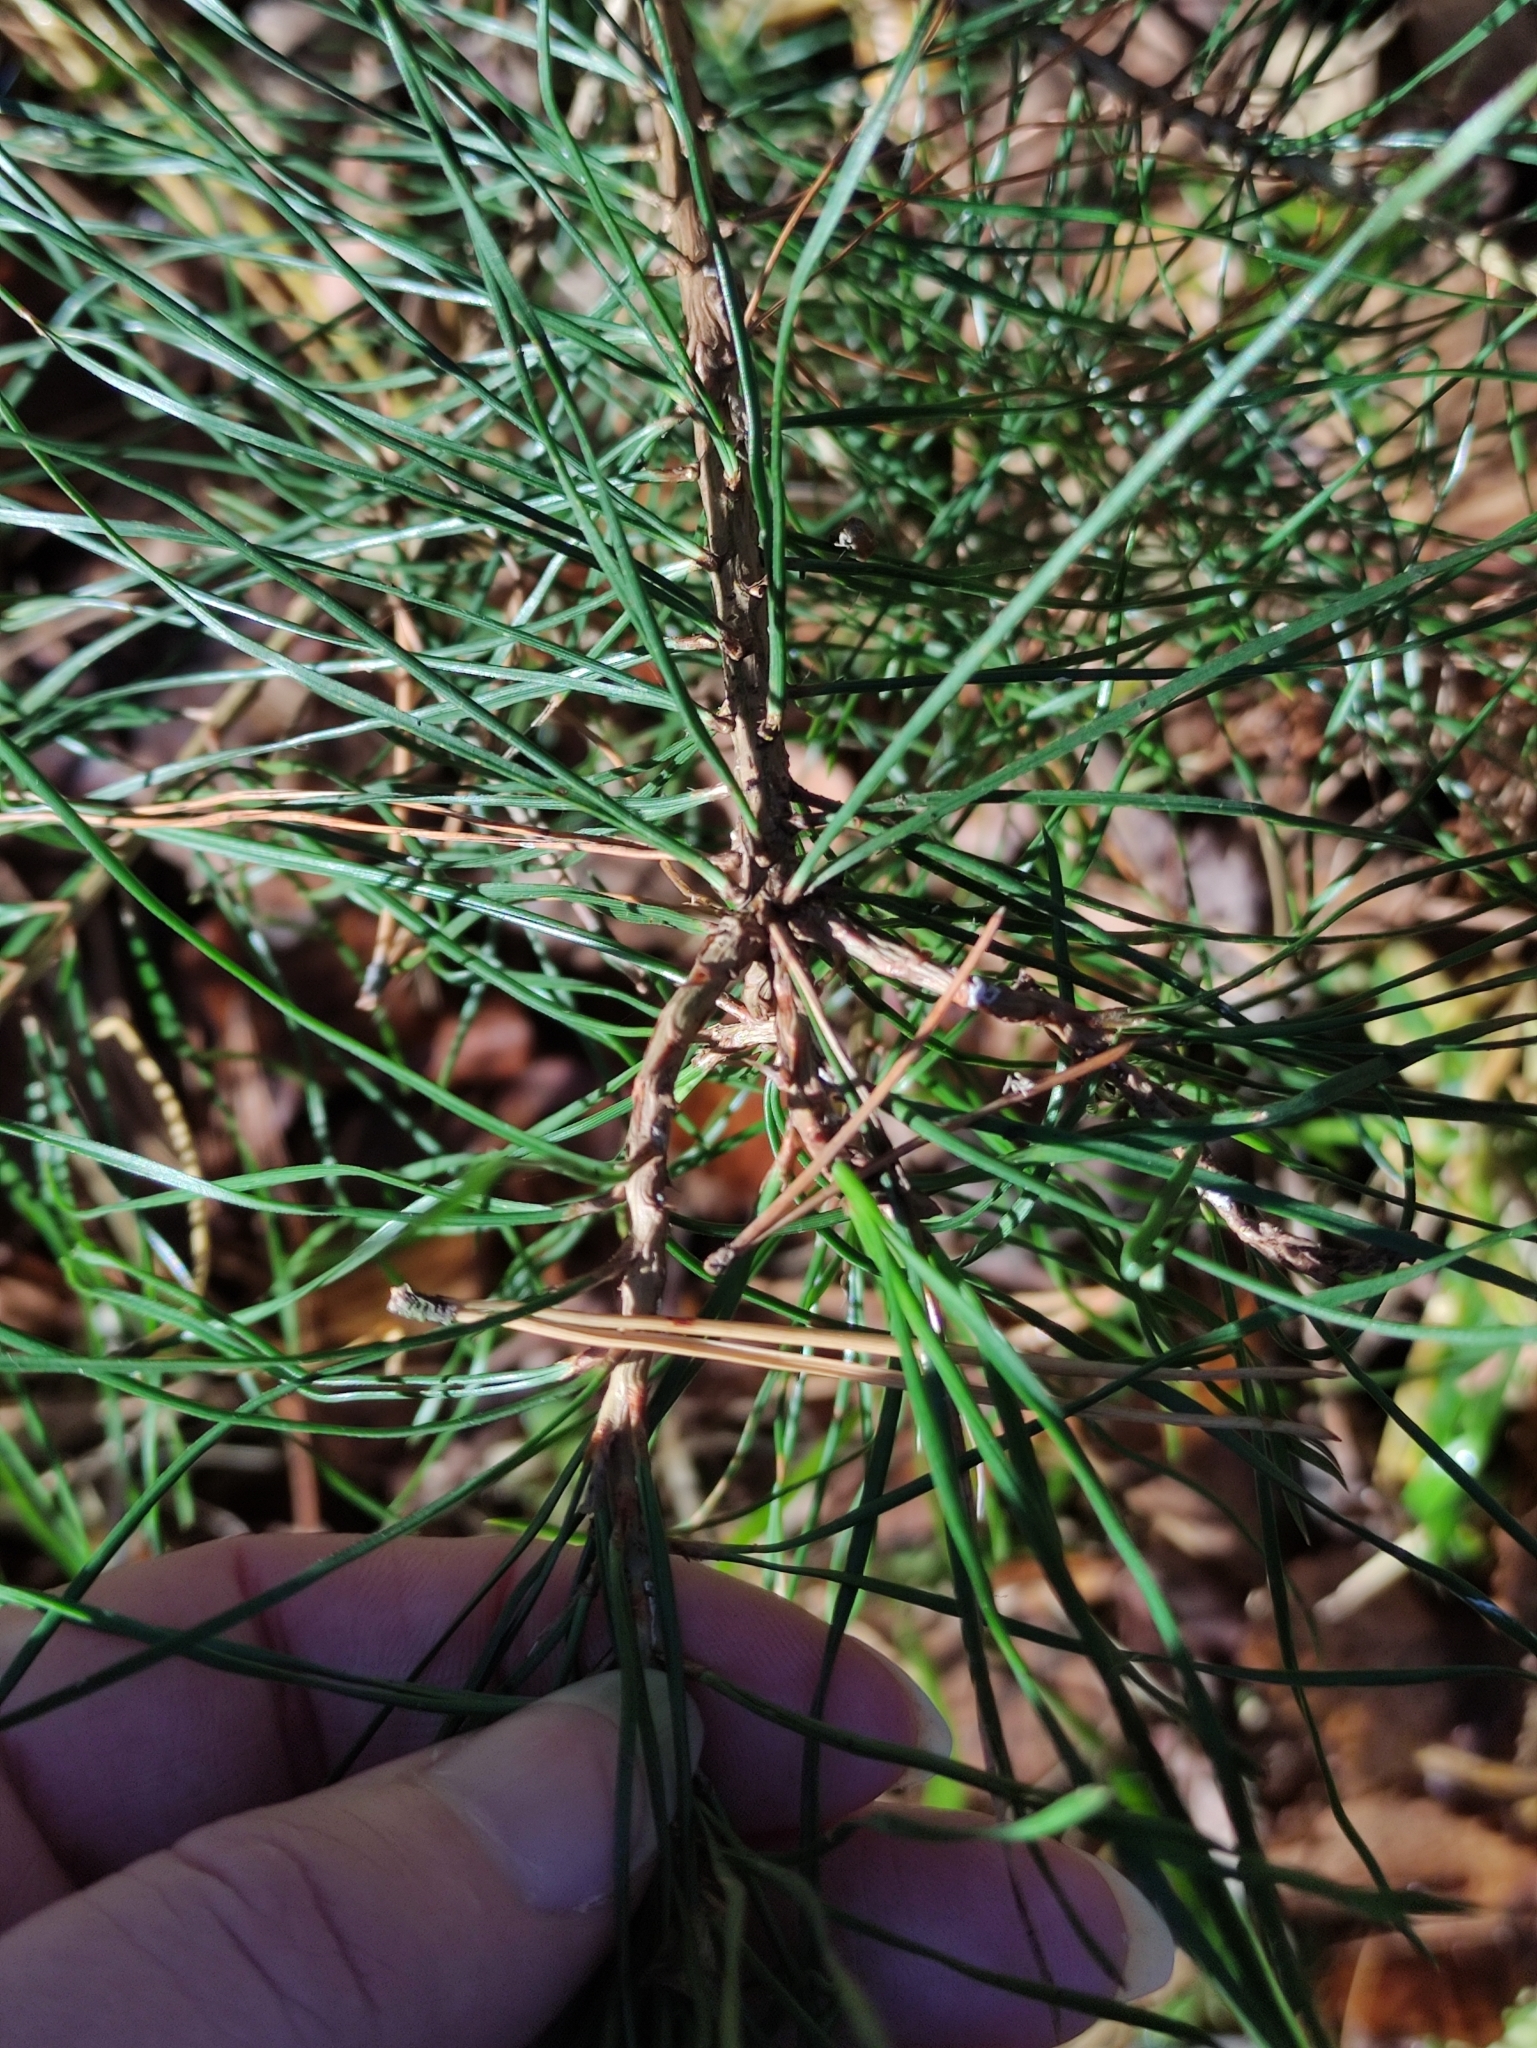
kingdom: Plantae
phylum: Tracheophyta
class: Pinopsida
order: Pinales
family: Pinaceae
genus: Pinus
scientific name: Pinus sylvestris
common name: Scots pine
